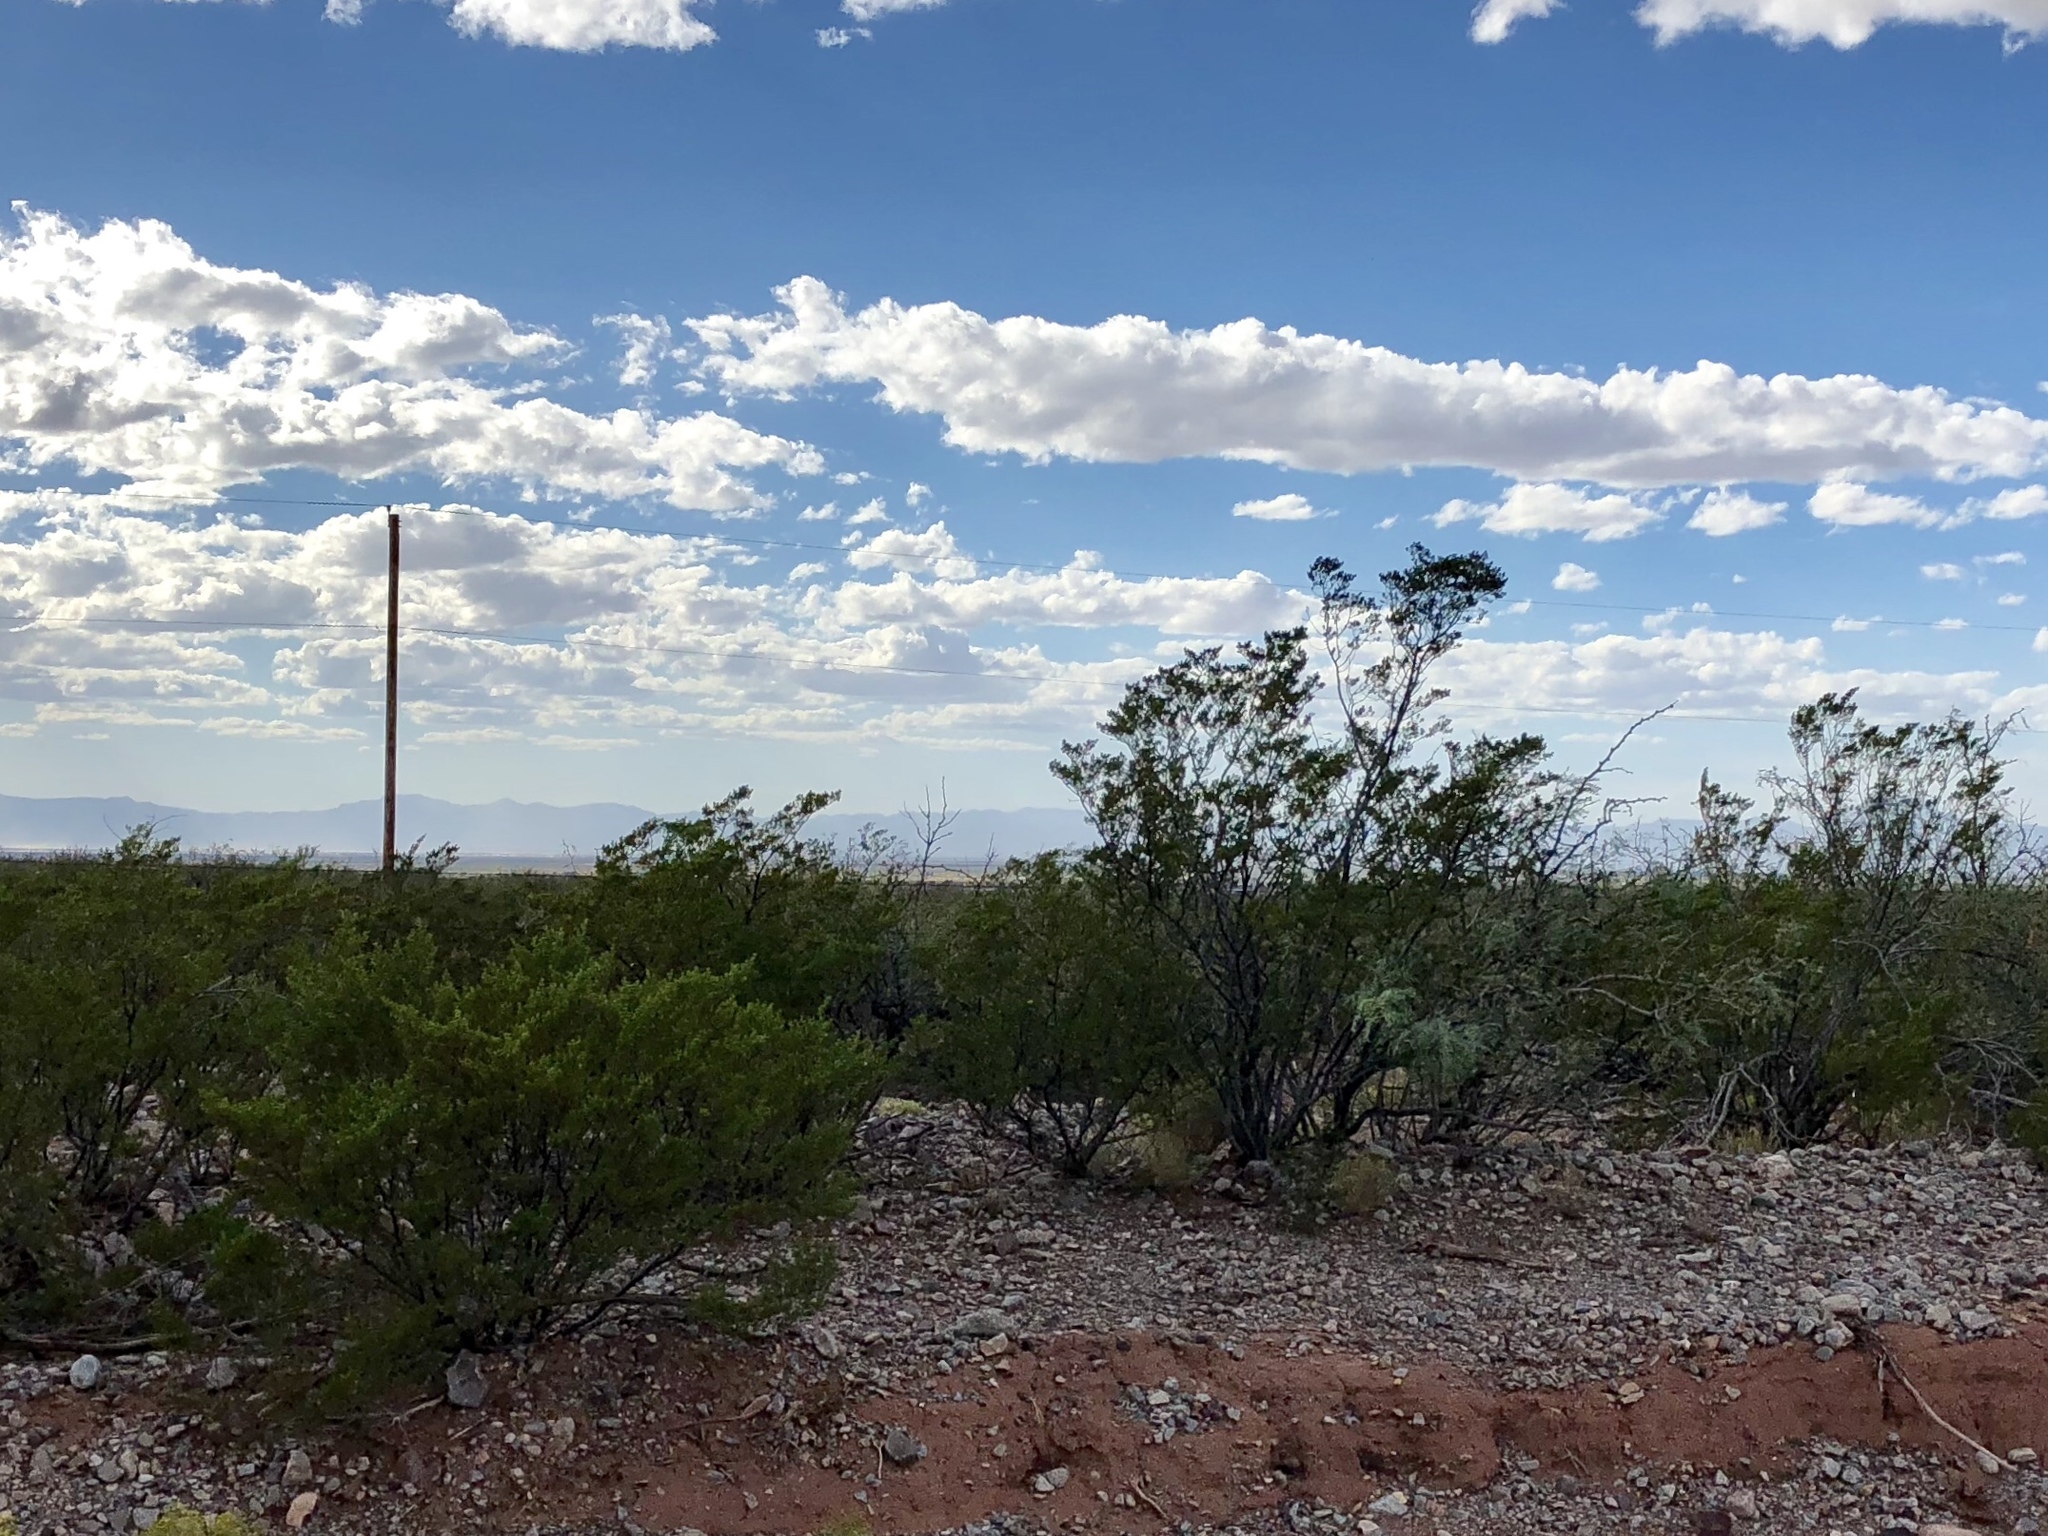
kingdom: Plantae
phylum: Tracheophyta
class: Magnoliopsida
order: Zygophyllales
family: Zygophyllaceae
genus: Larrea
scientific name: Larrea tridentata
